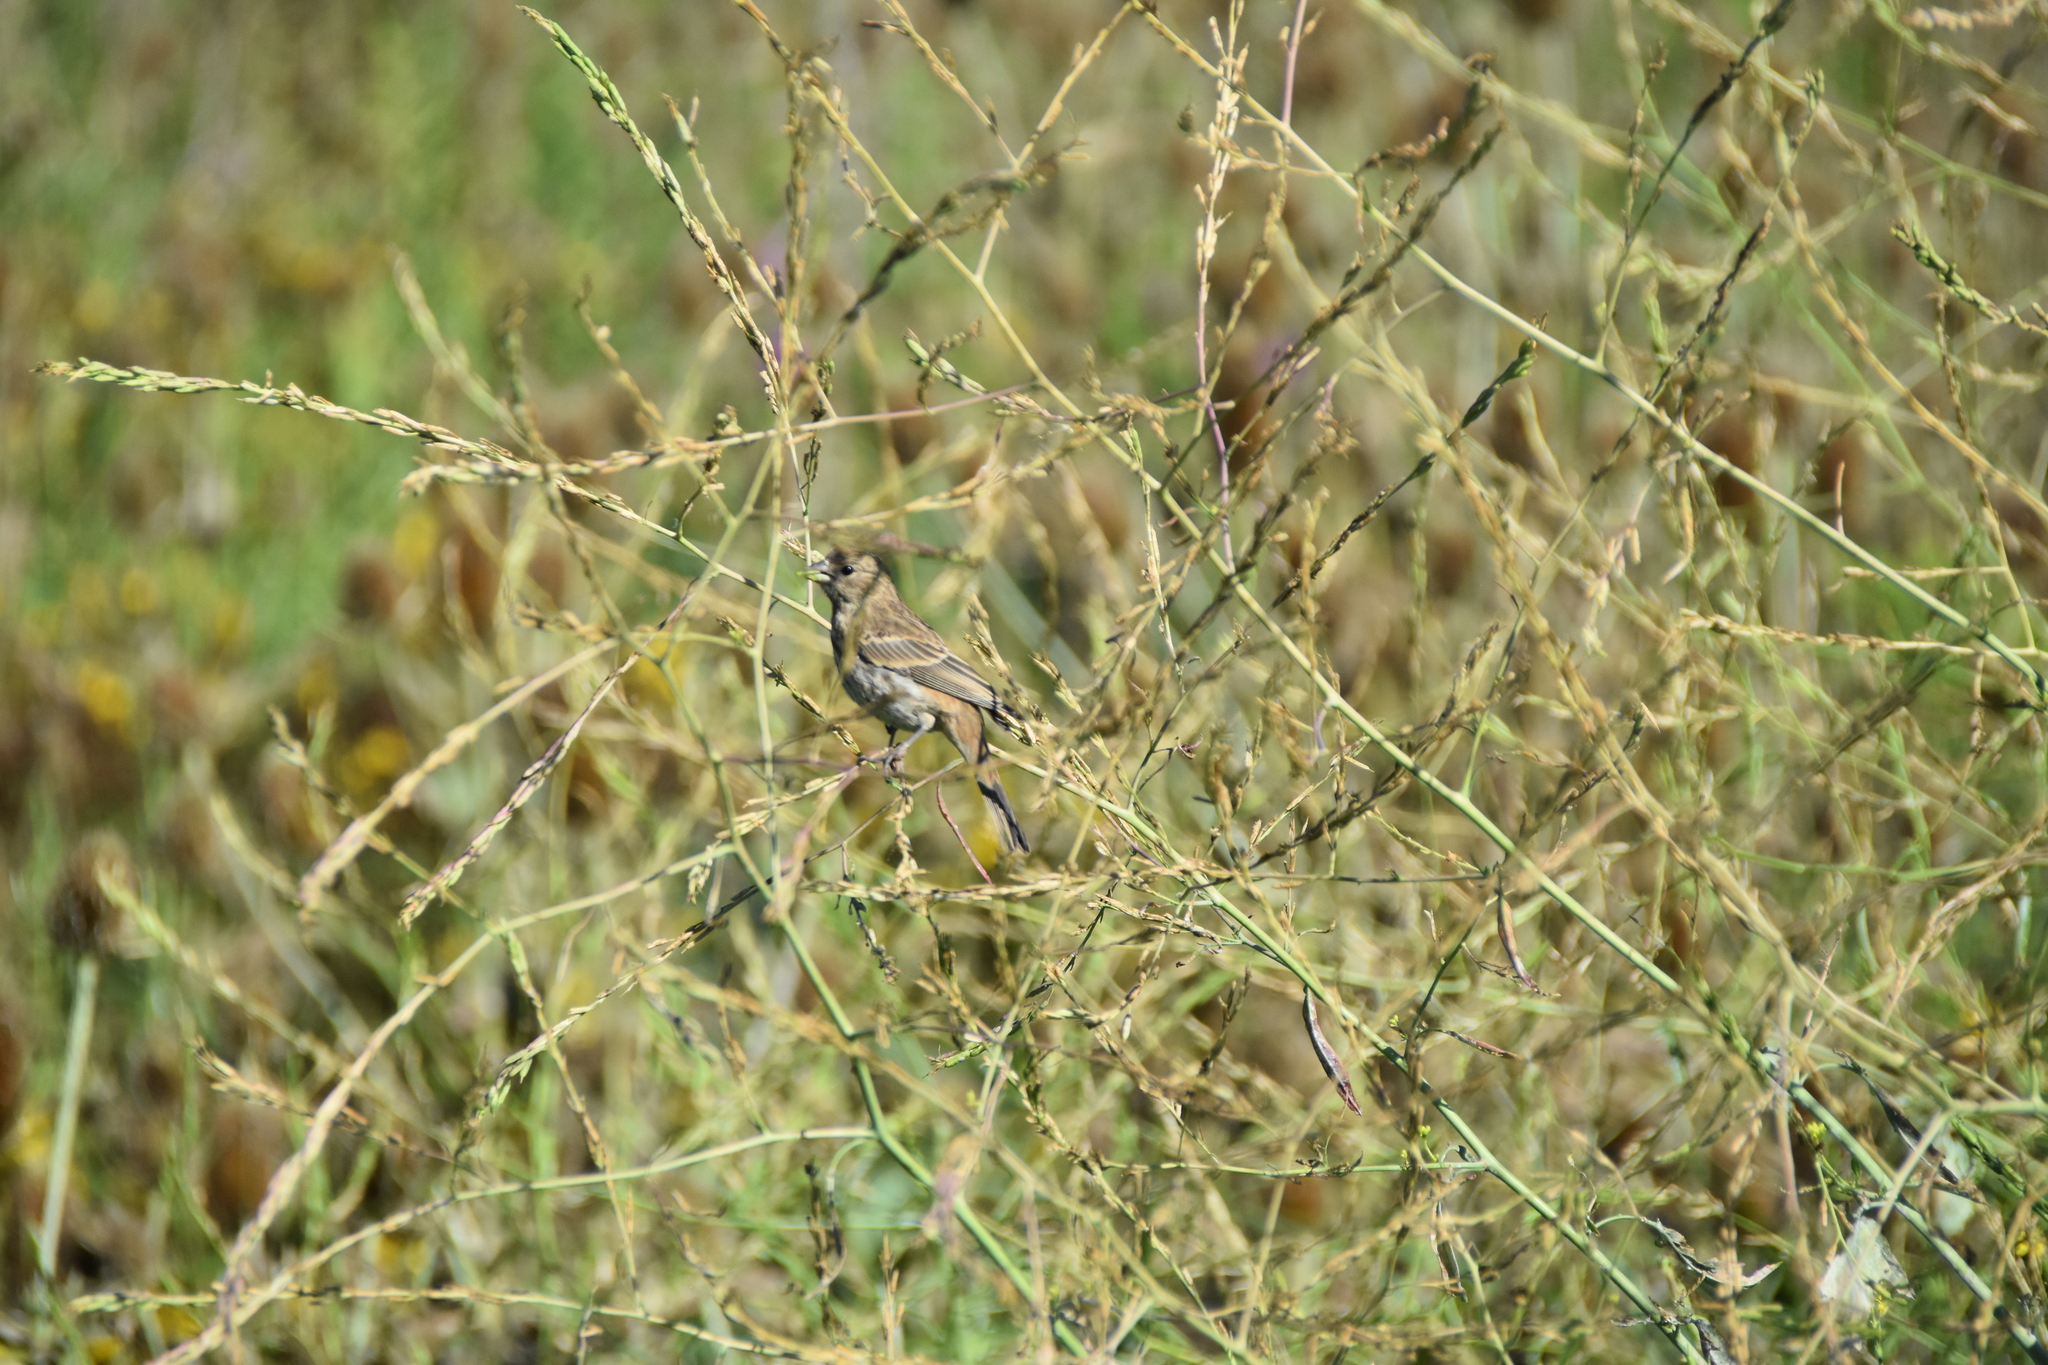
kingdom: Animalia
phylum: Chordata
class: Aves
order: Passeriformes
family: Fringillidae
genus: Haemorhous
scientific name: Haemorhous mexicanus
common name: House finch
